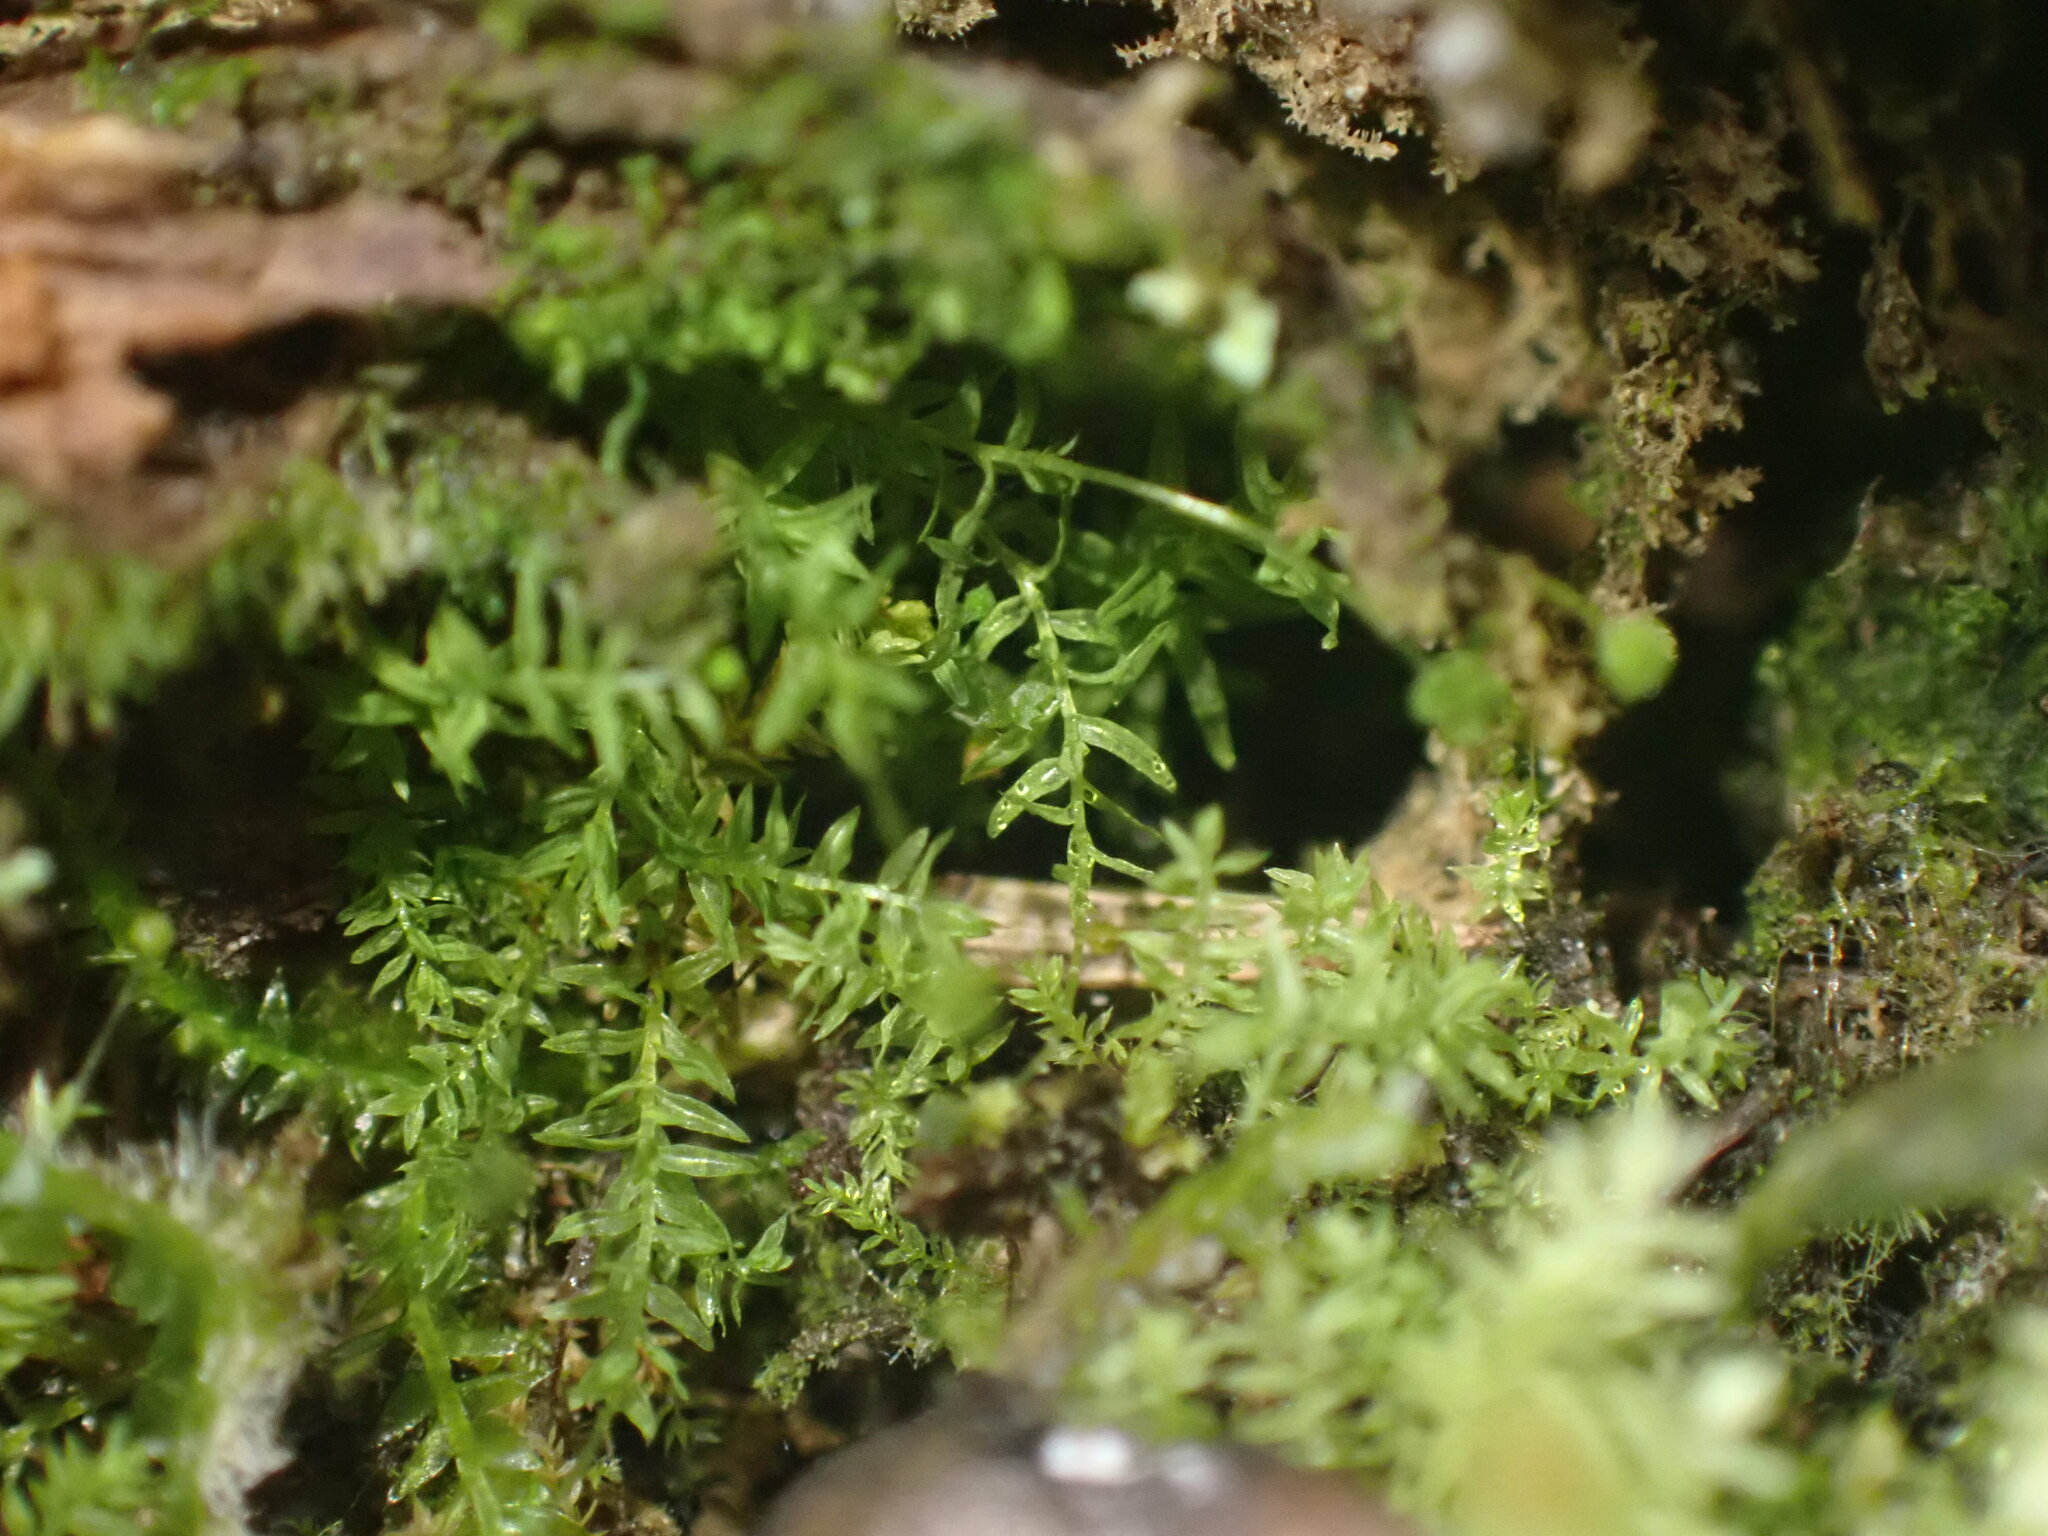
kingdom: Plantae
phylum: Bryophyta
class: Polytrichopsida
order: Tetraphidales
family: Tetraphidaceae
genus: Tetraphis
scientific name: Tetraphis pellucida
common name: Common four-toothed moss
